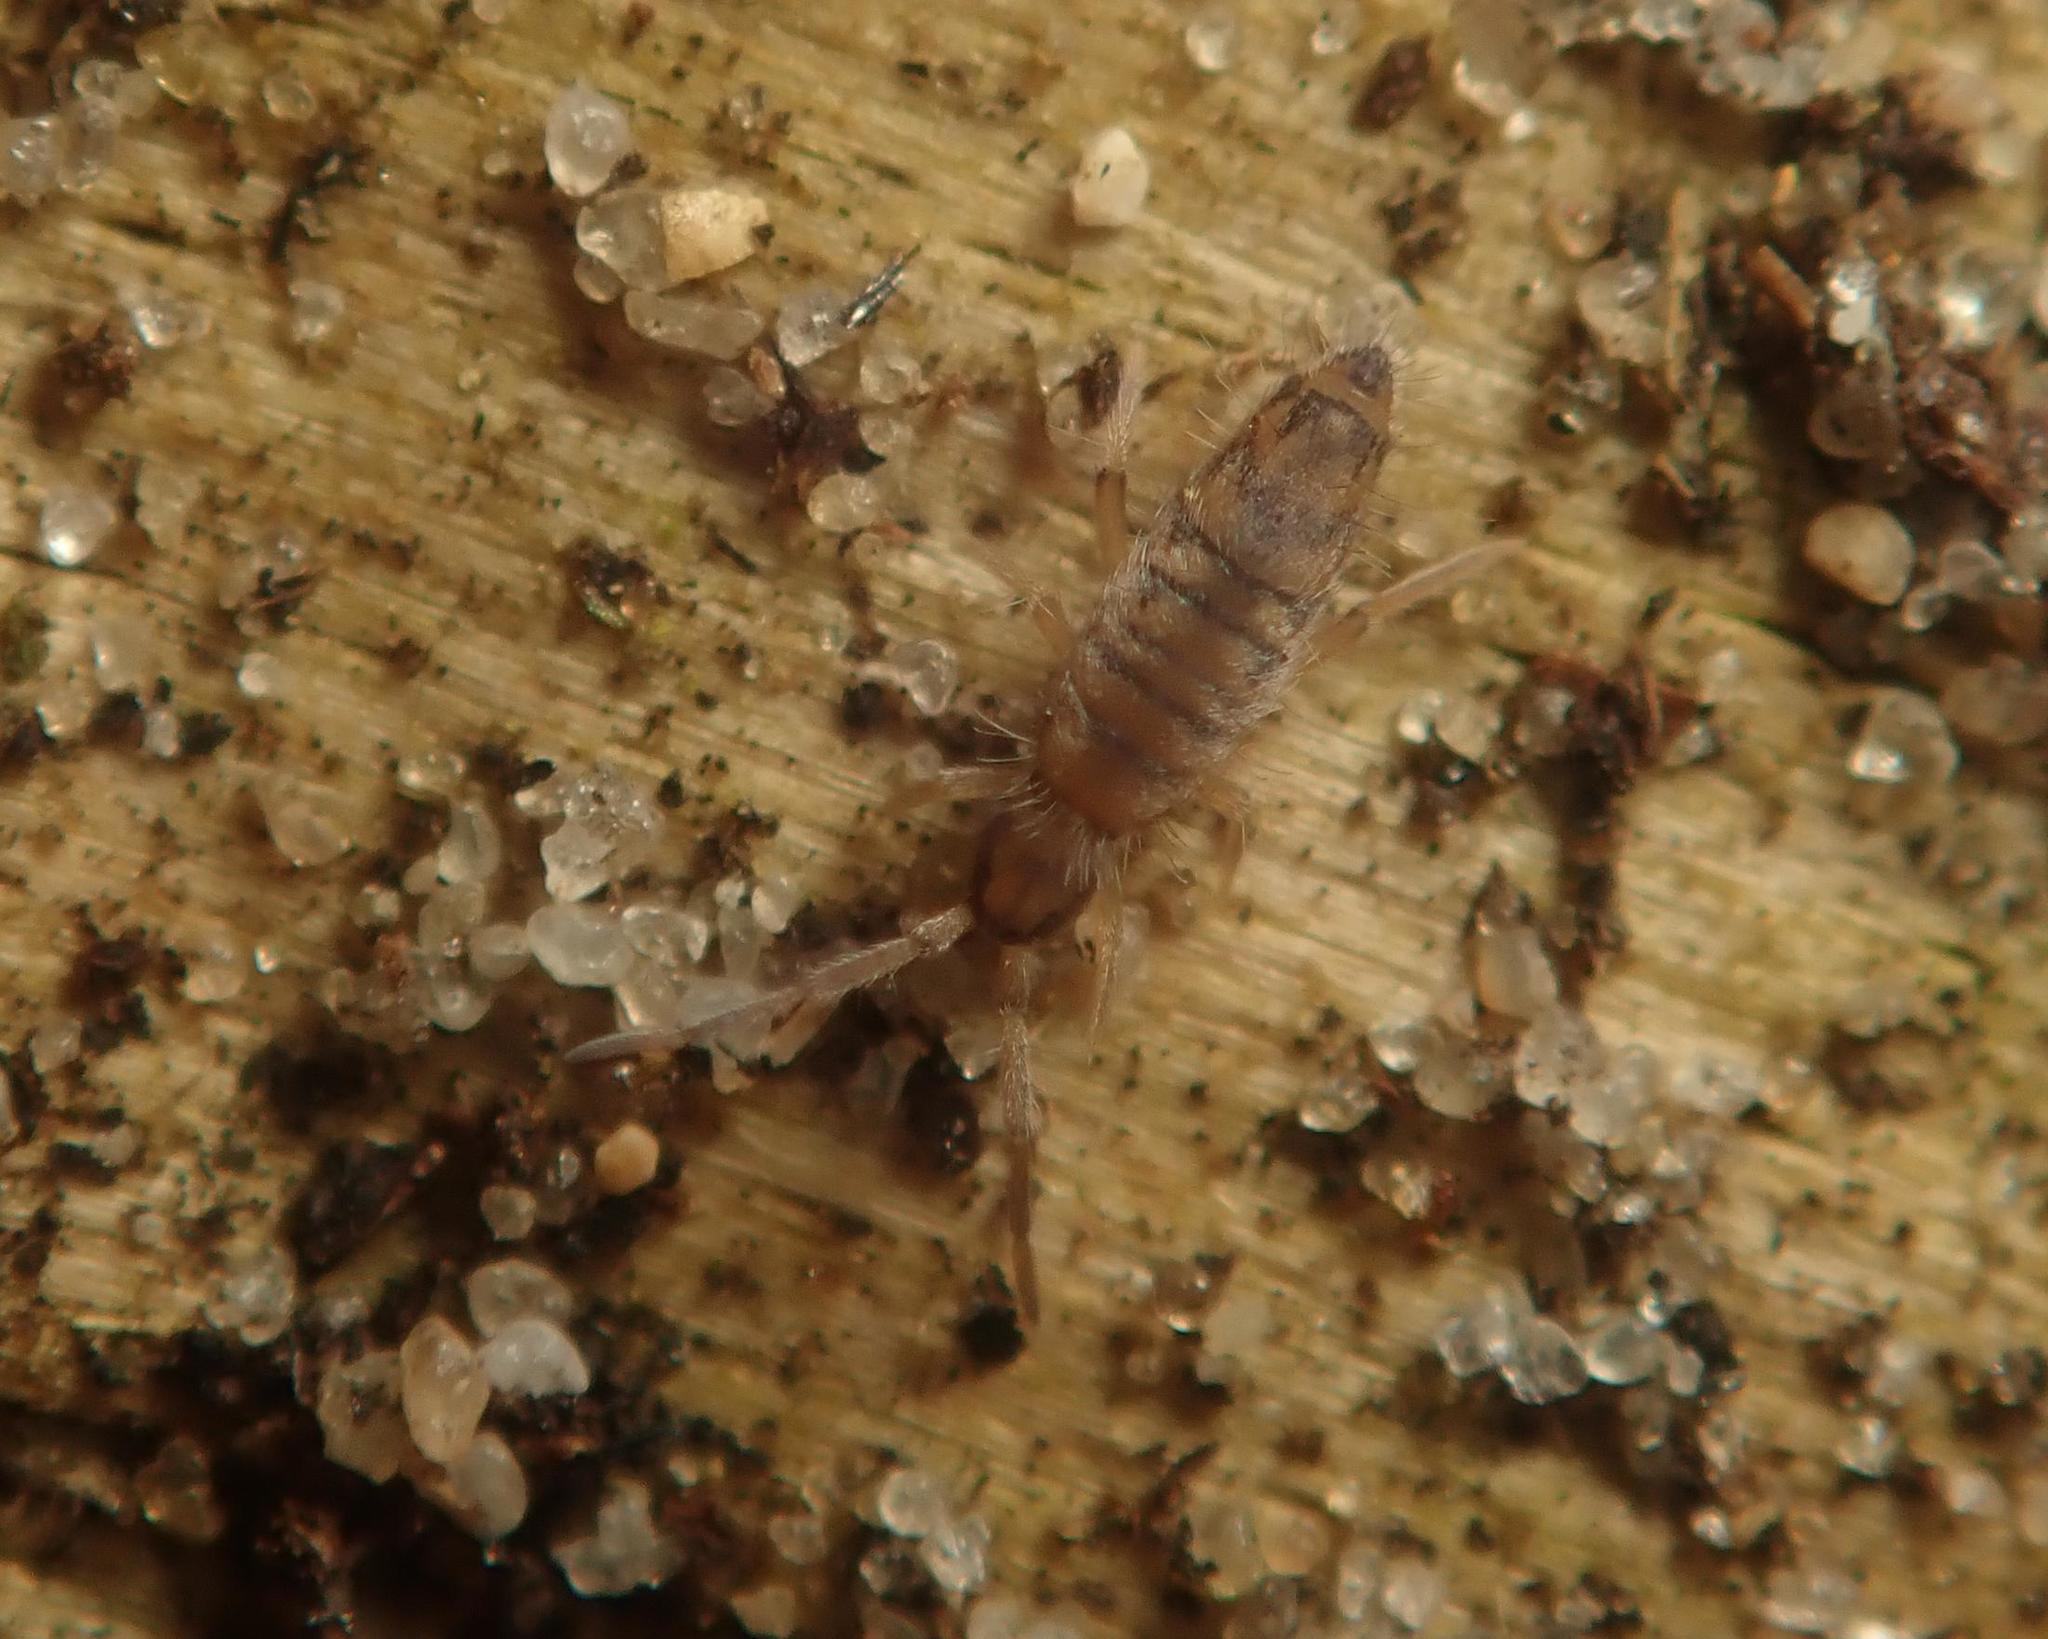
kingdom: Animalia
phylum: Arthropoda
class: Collembola
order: Entomobryomorpha
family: Entomobryidae
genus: Entomobrya
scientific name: Entomobrya multifasciata
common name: Springtail
